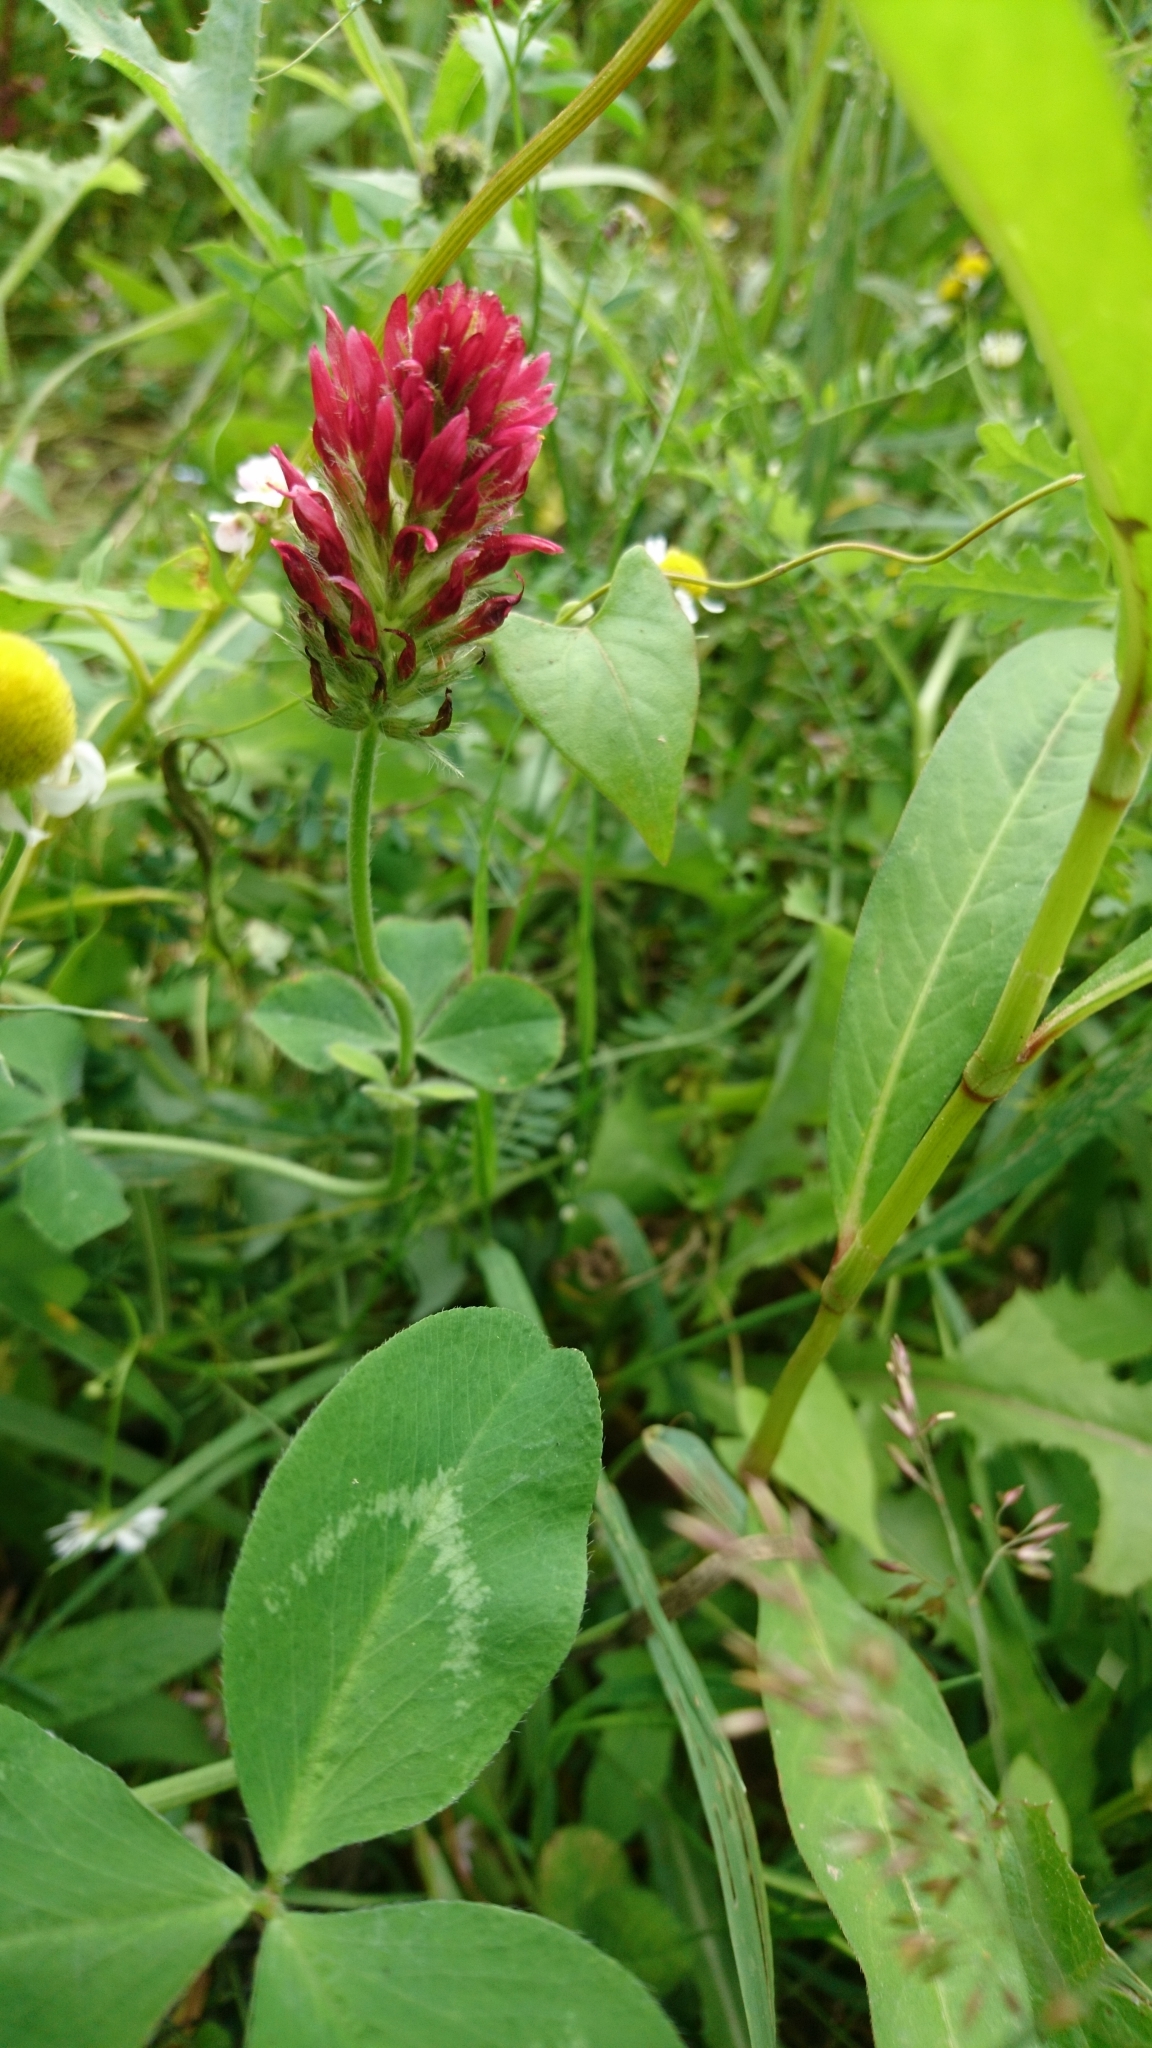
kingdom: Plantae
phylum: Tracheophyta
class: Magnoliopsida
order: Fabales
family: Fabaceae
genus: Trifolium
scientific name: Trifolium incarnatum
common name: Crimson clover
